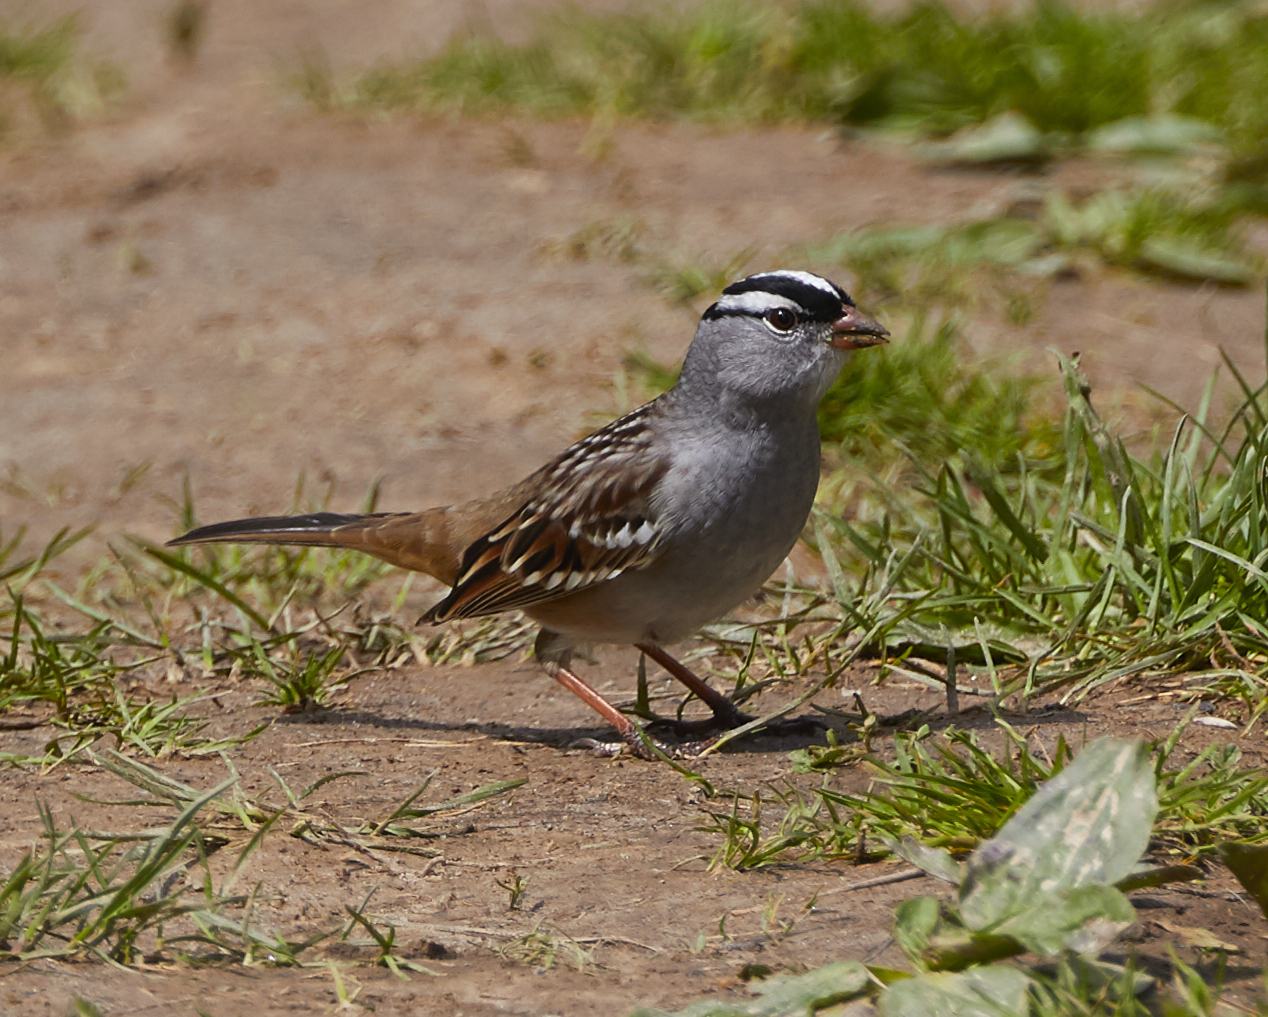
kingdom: Animalia
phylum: Chordata
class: Aves
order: Passeriformes
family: Passerellidae
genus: Zonotrichia
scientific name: Zonotrichia leucophrys
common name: White-crowned sparrow
